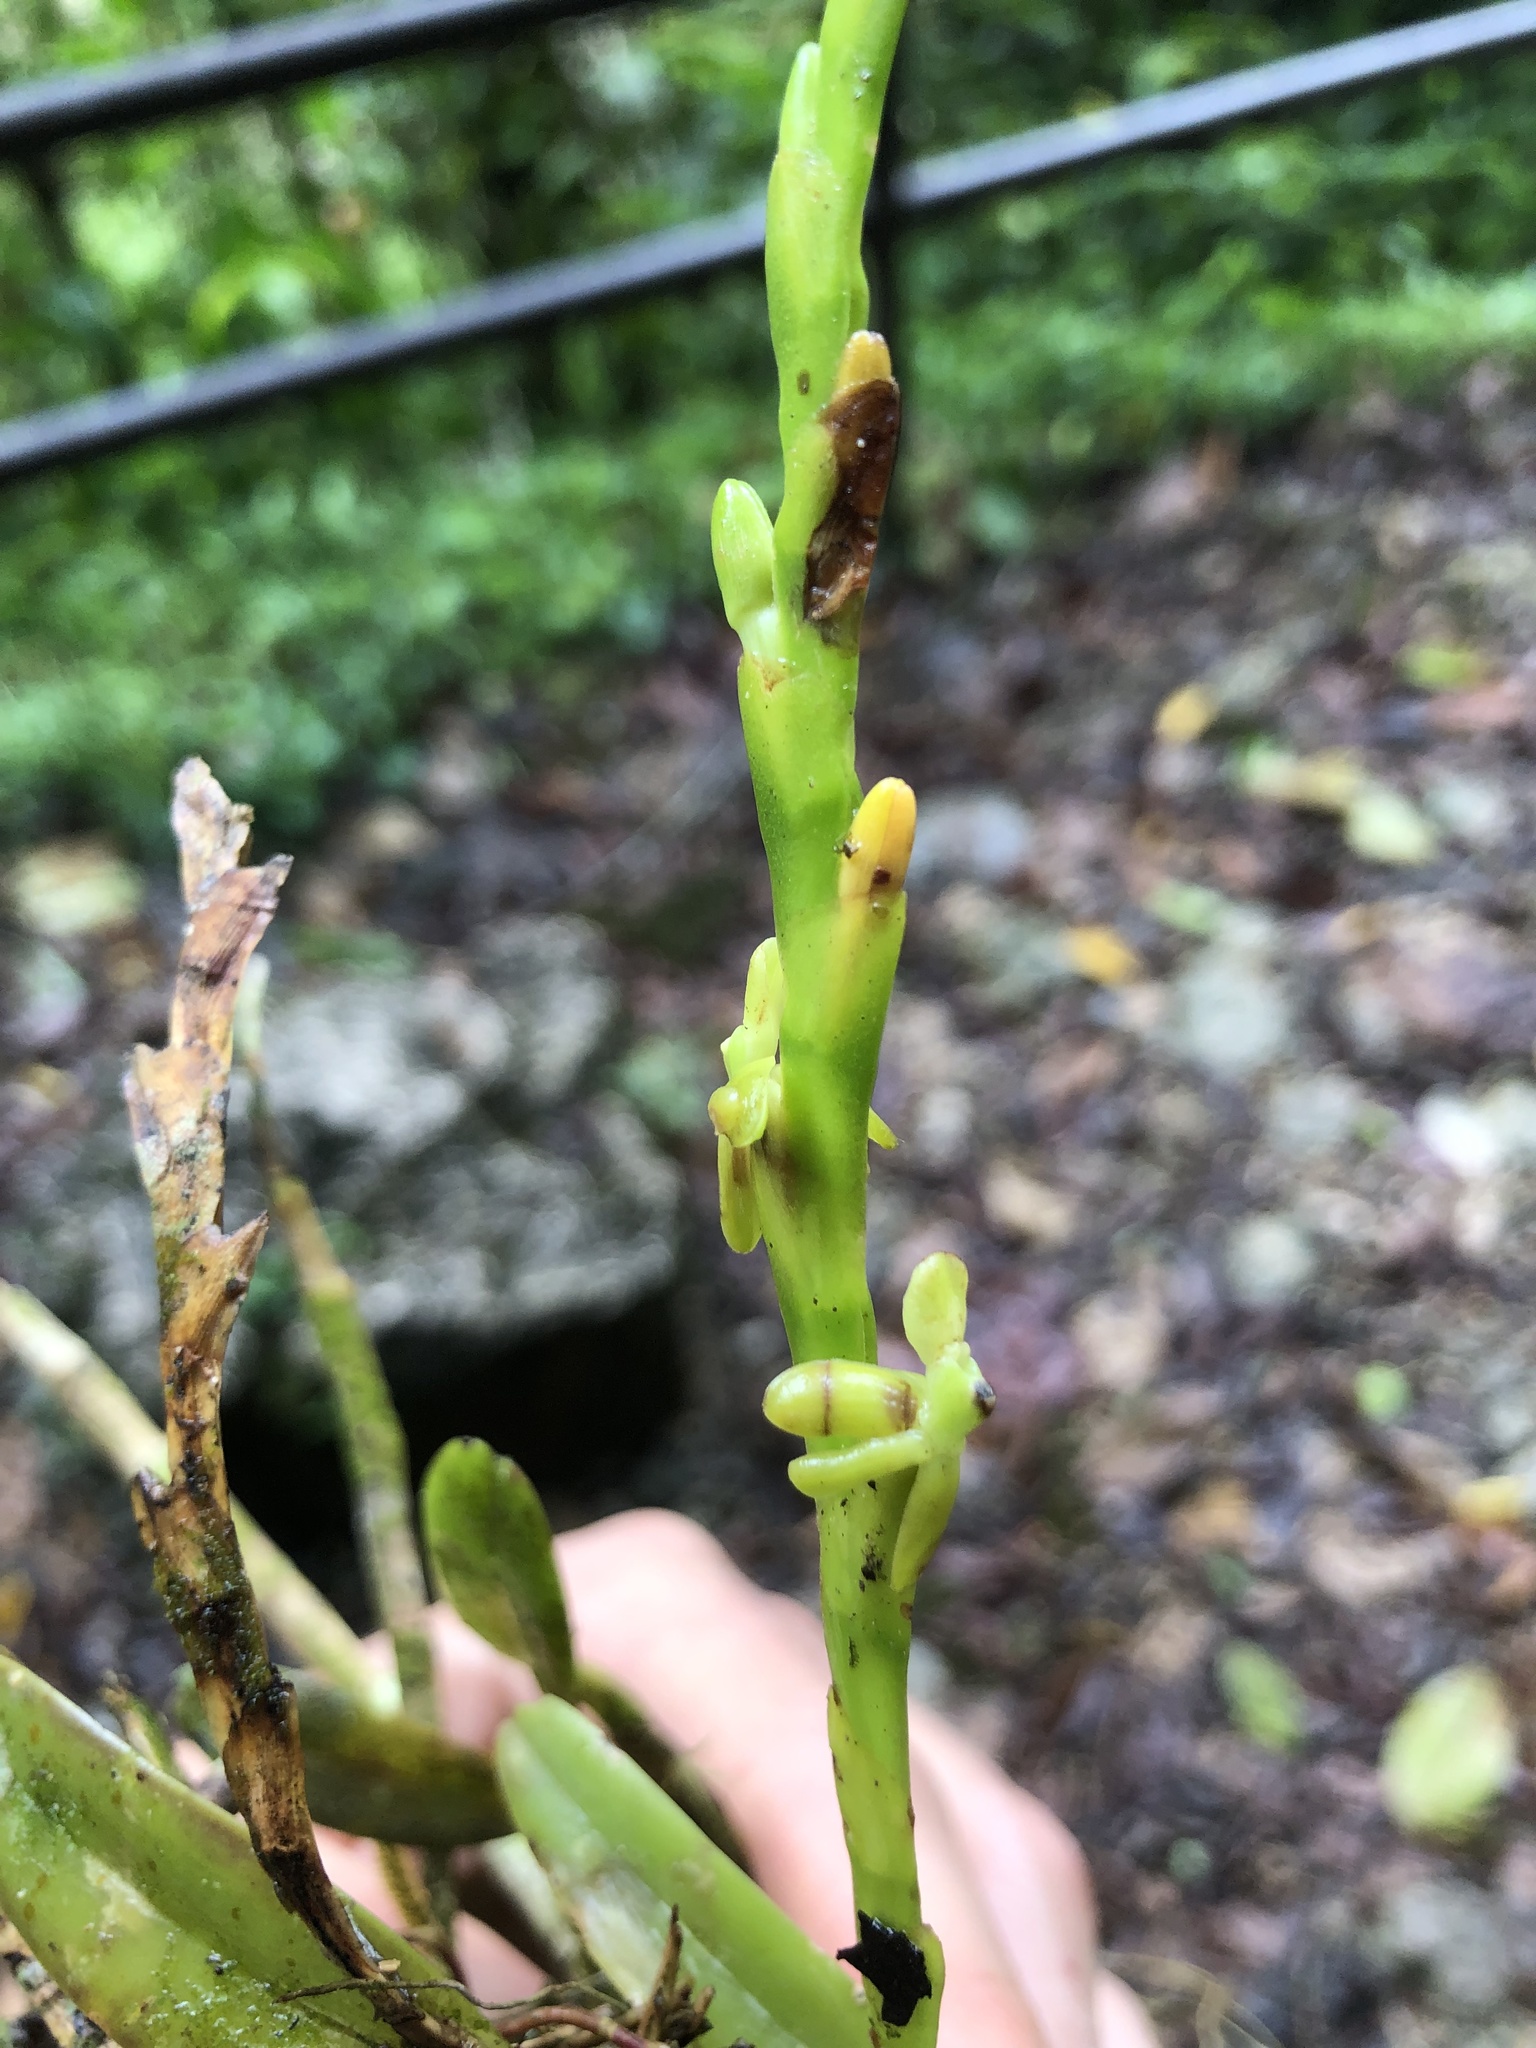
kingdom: Plantae
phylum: Tracheophyta
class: Liliopsida
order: Asparagales
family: Orchidaceae
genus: Epidendrum
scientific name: Epidendrum cardiophorum
